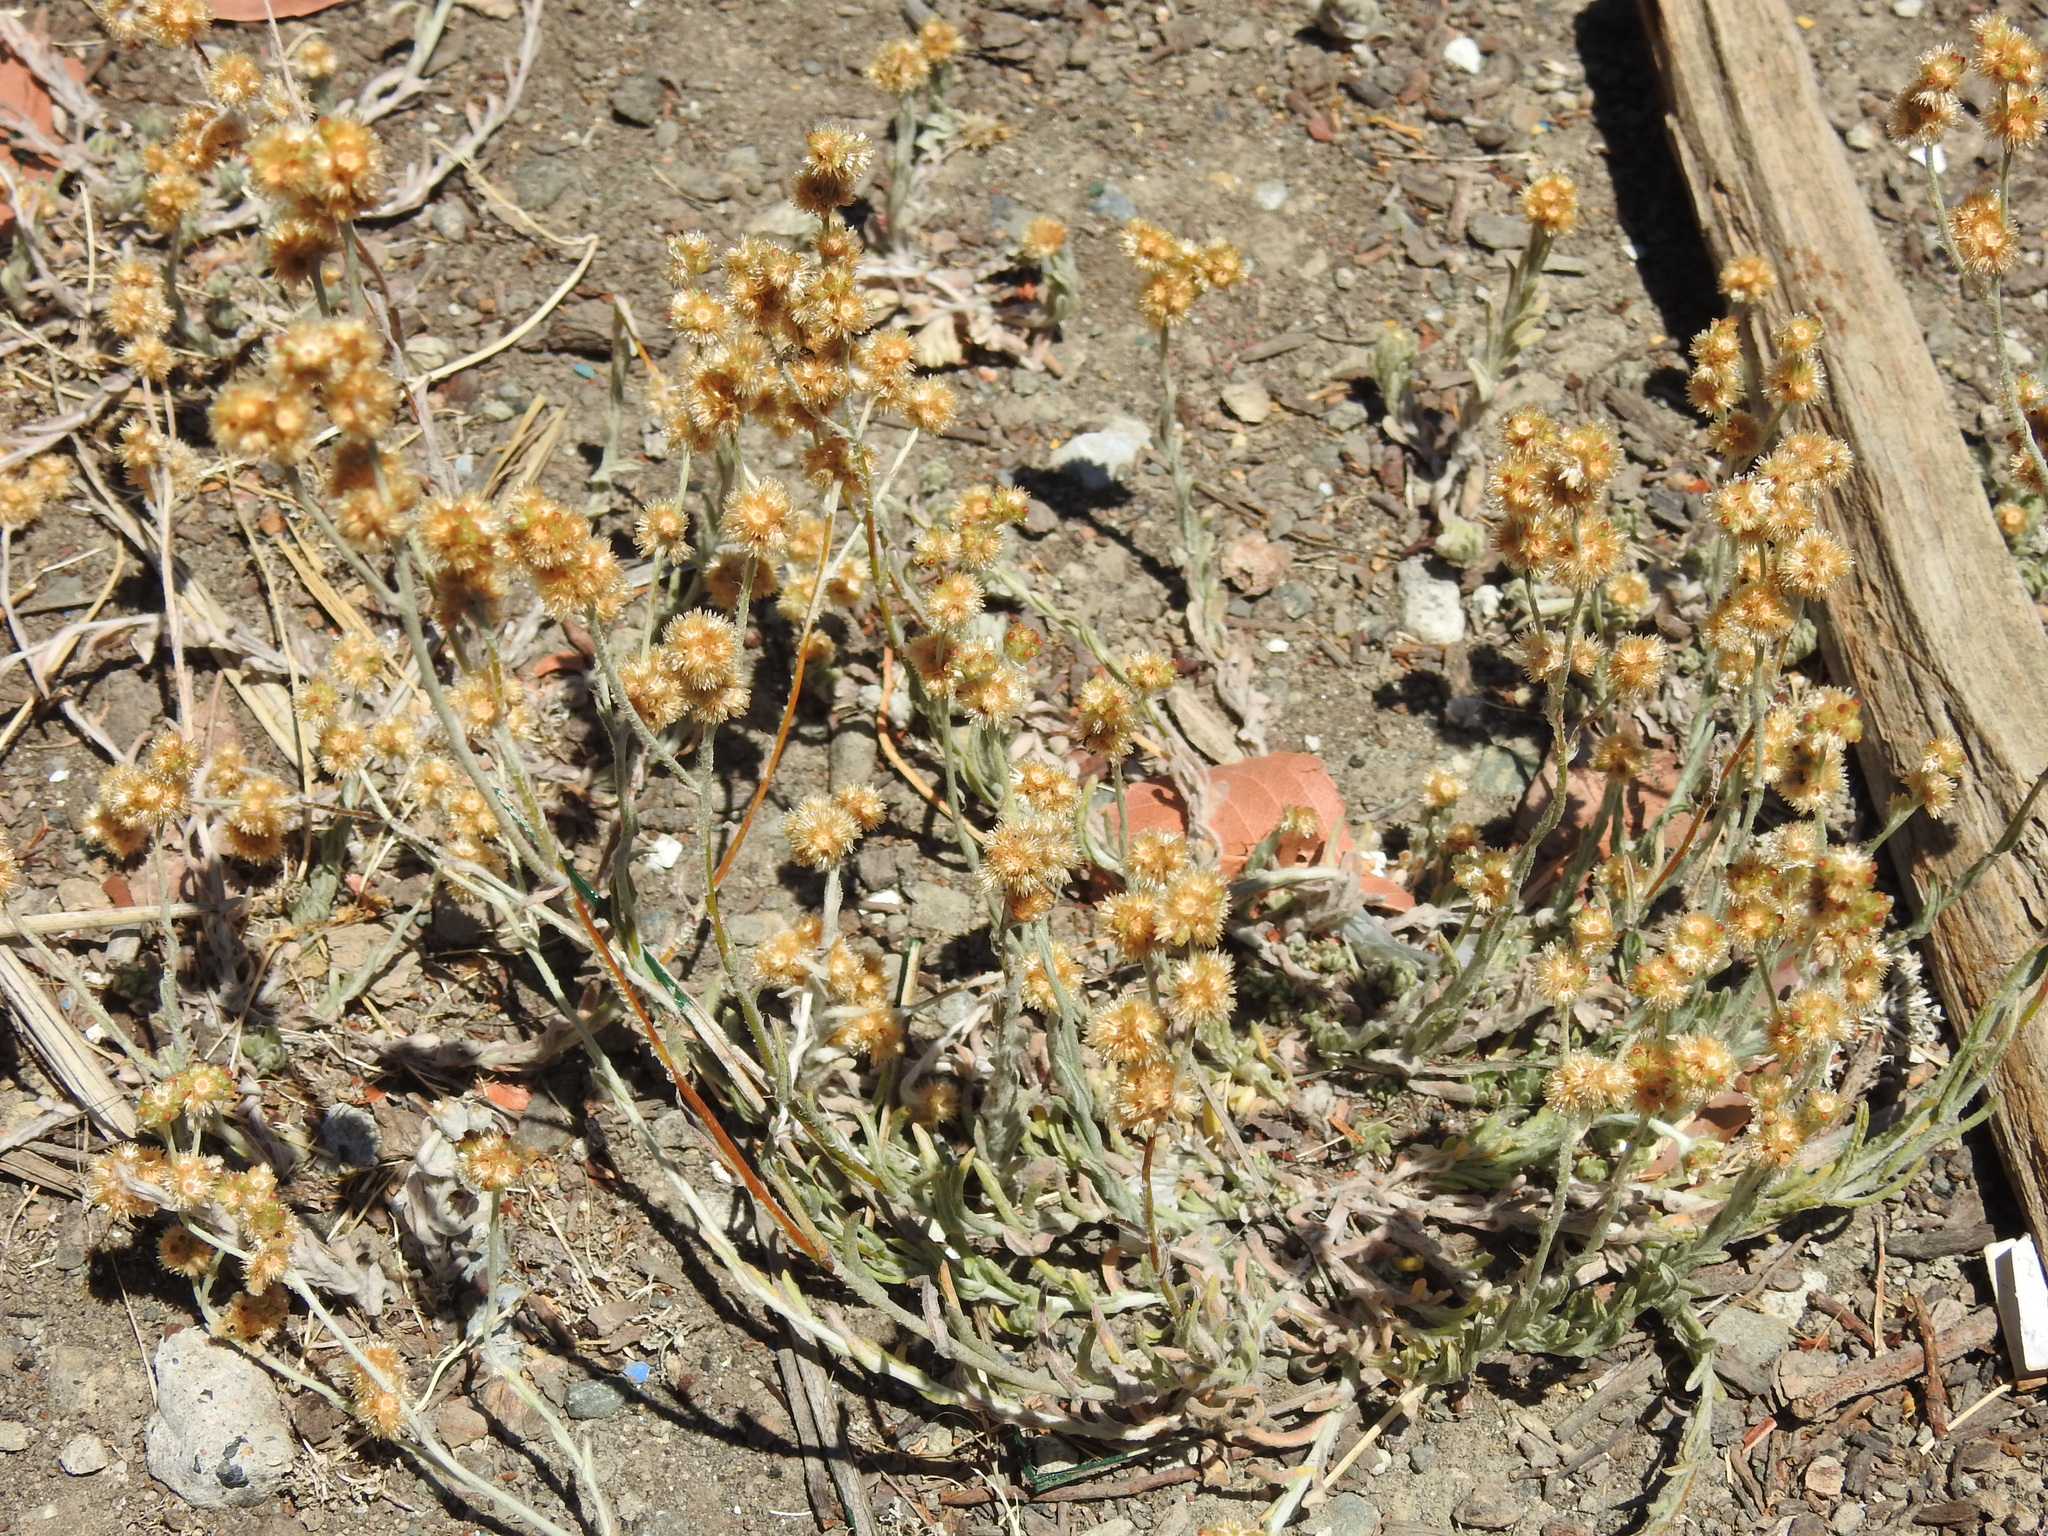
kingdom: Plantae
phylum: Tracheophyta
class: Magnoliopsida
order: Asterales
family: Asteraceae
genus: Helichrysum
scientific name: Helichrysum luteoalbum
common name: Daisy
